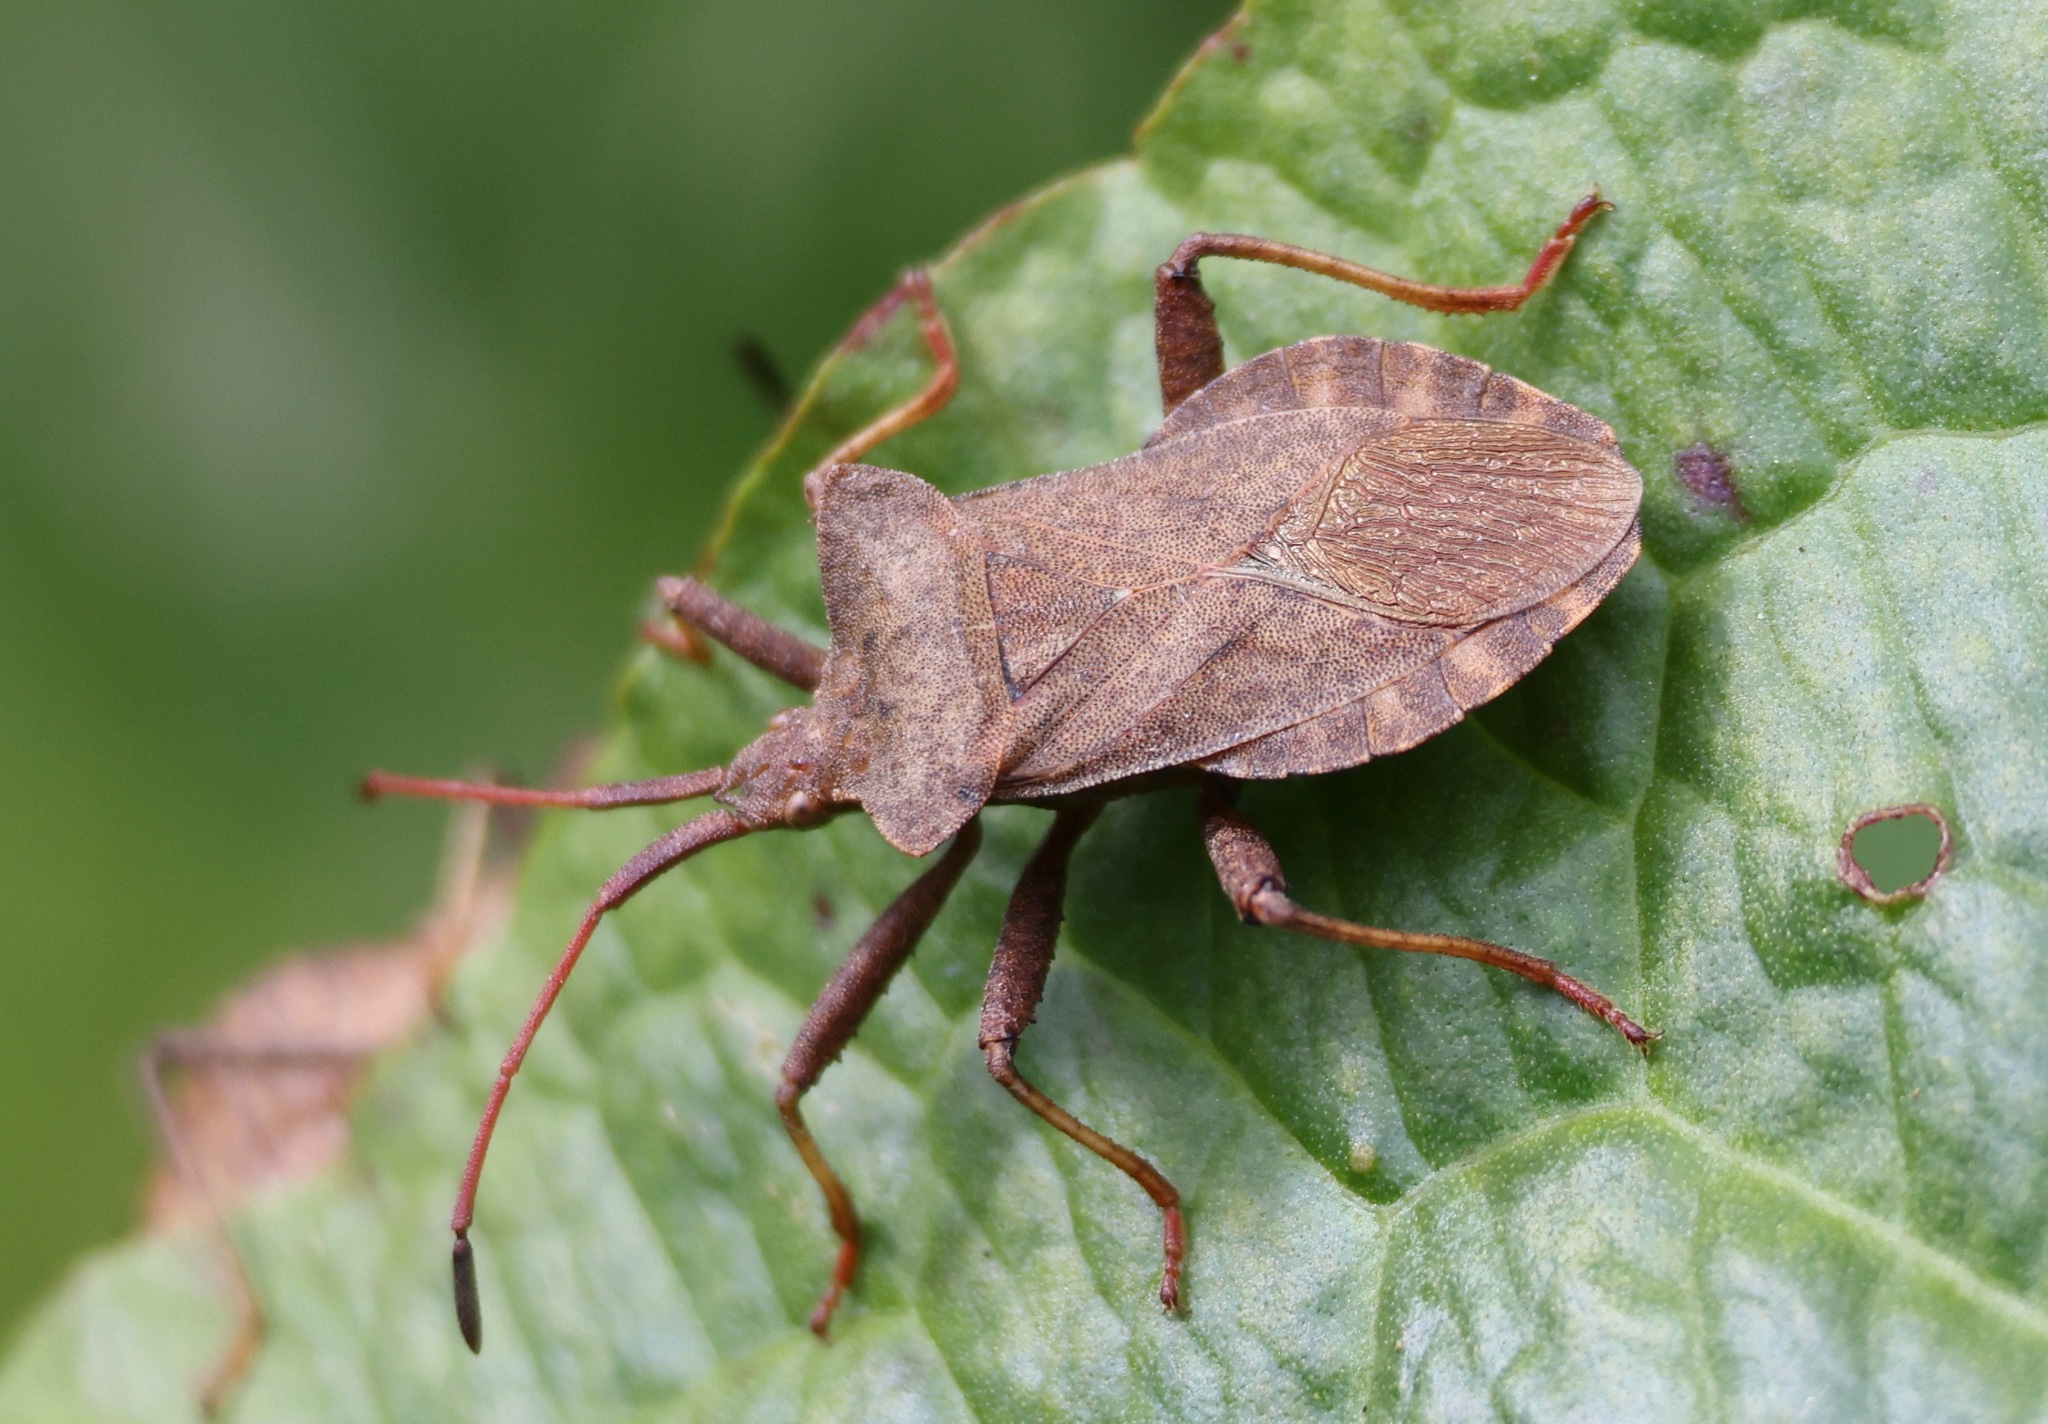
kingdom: Animalia
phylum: Arthropoda
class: Insecta
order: Hemiptera
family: Coreidae
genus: Coreus
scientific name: Coreus marginatus
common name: Dock bug
